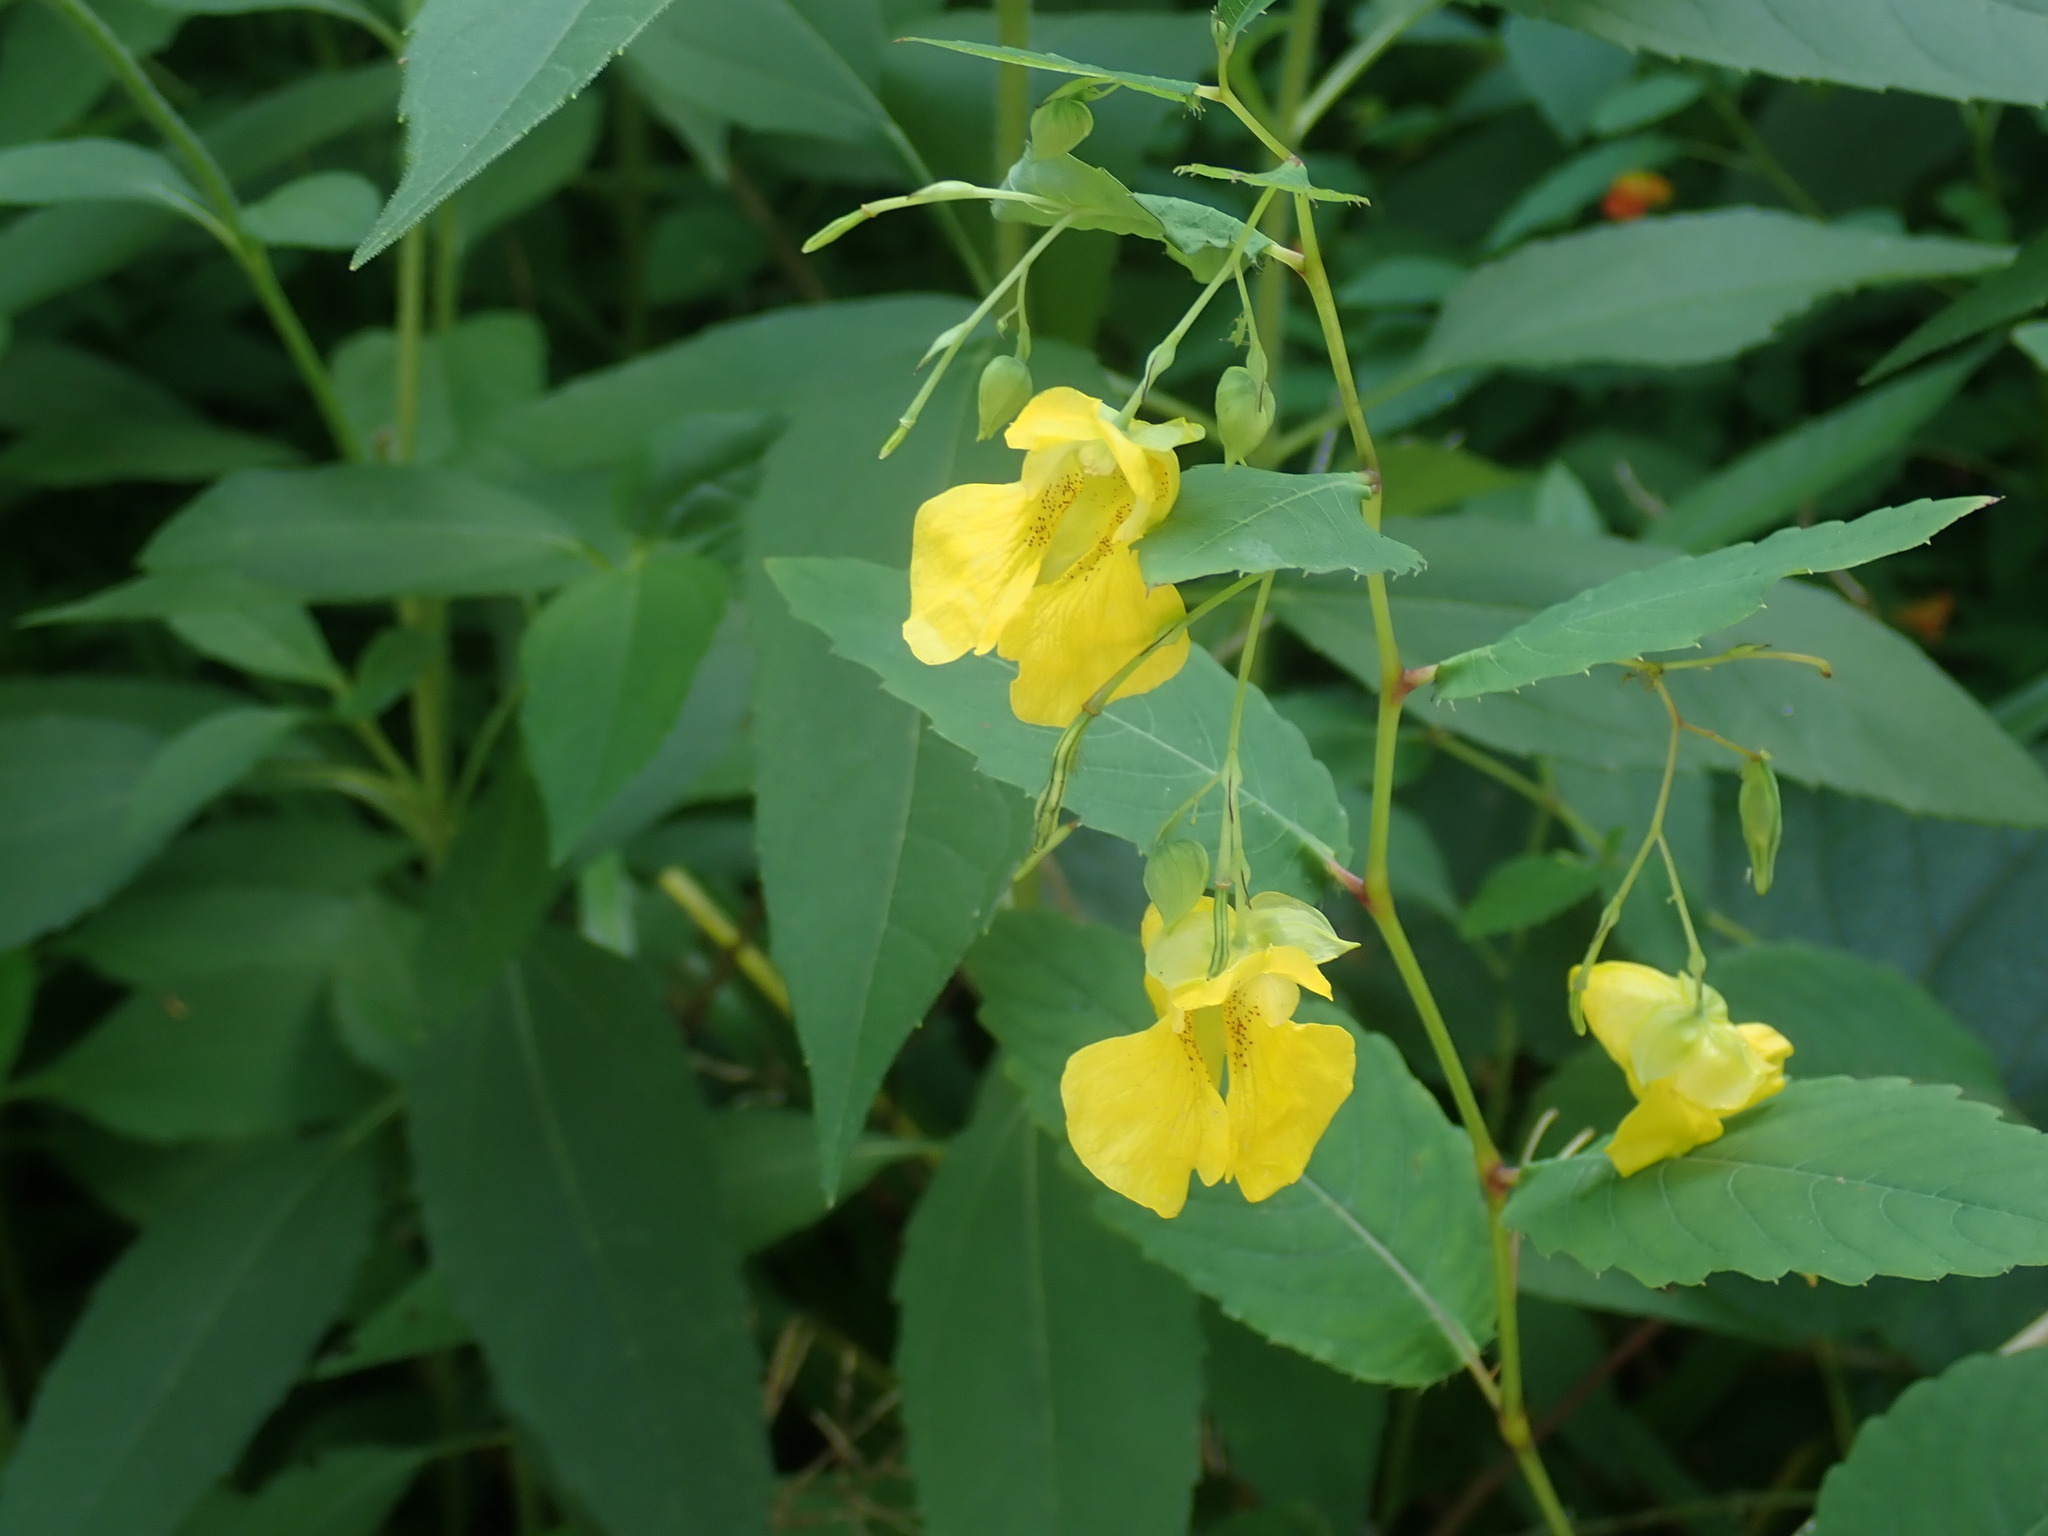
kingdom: Plantae
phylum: Tracheophyta
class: Magnoliopsida
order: Ericales
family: Balsaminaceae
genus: Impatiens
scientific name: Impatiens pallida
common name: Pale snapweed
